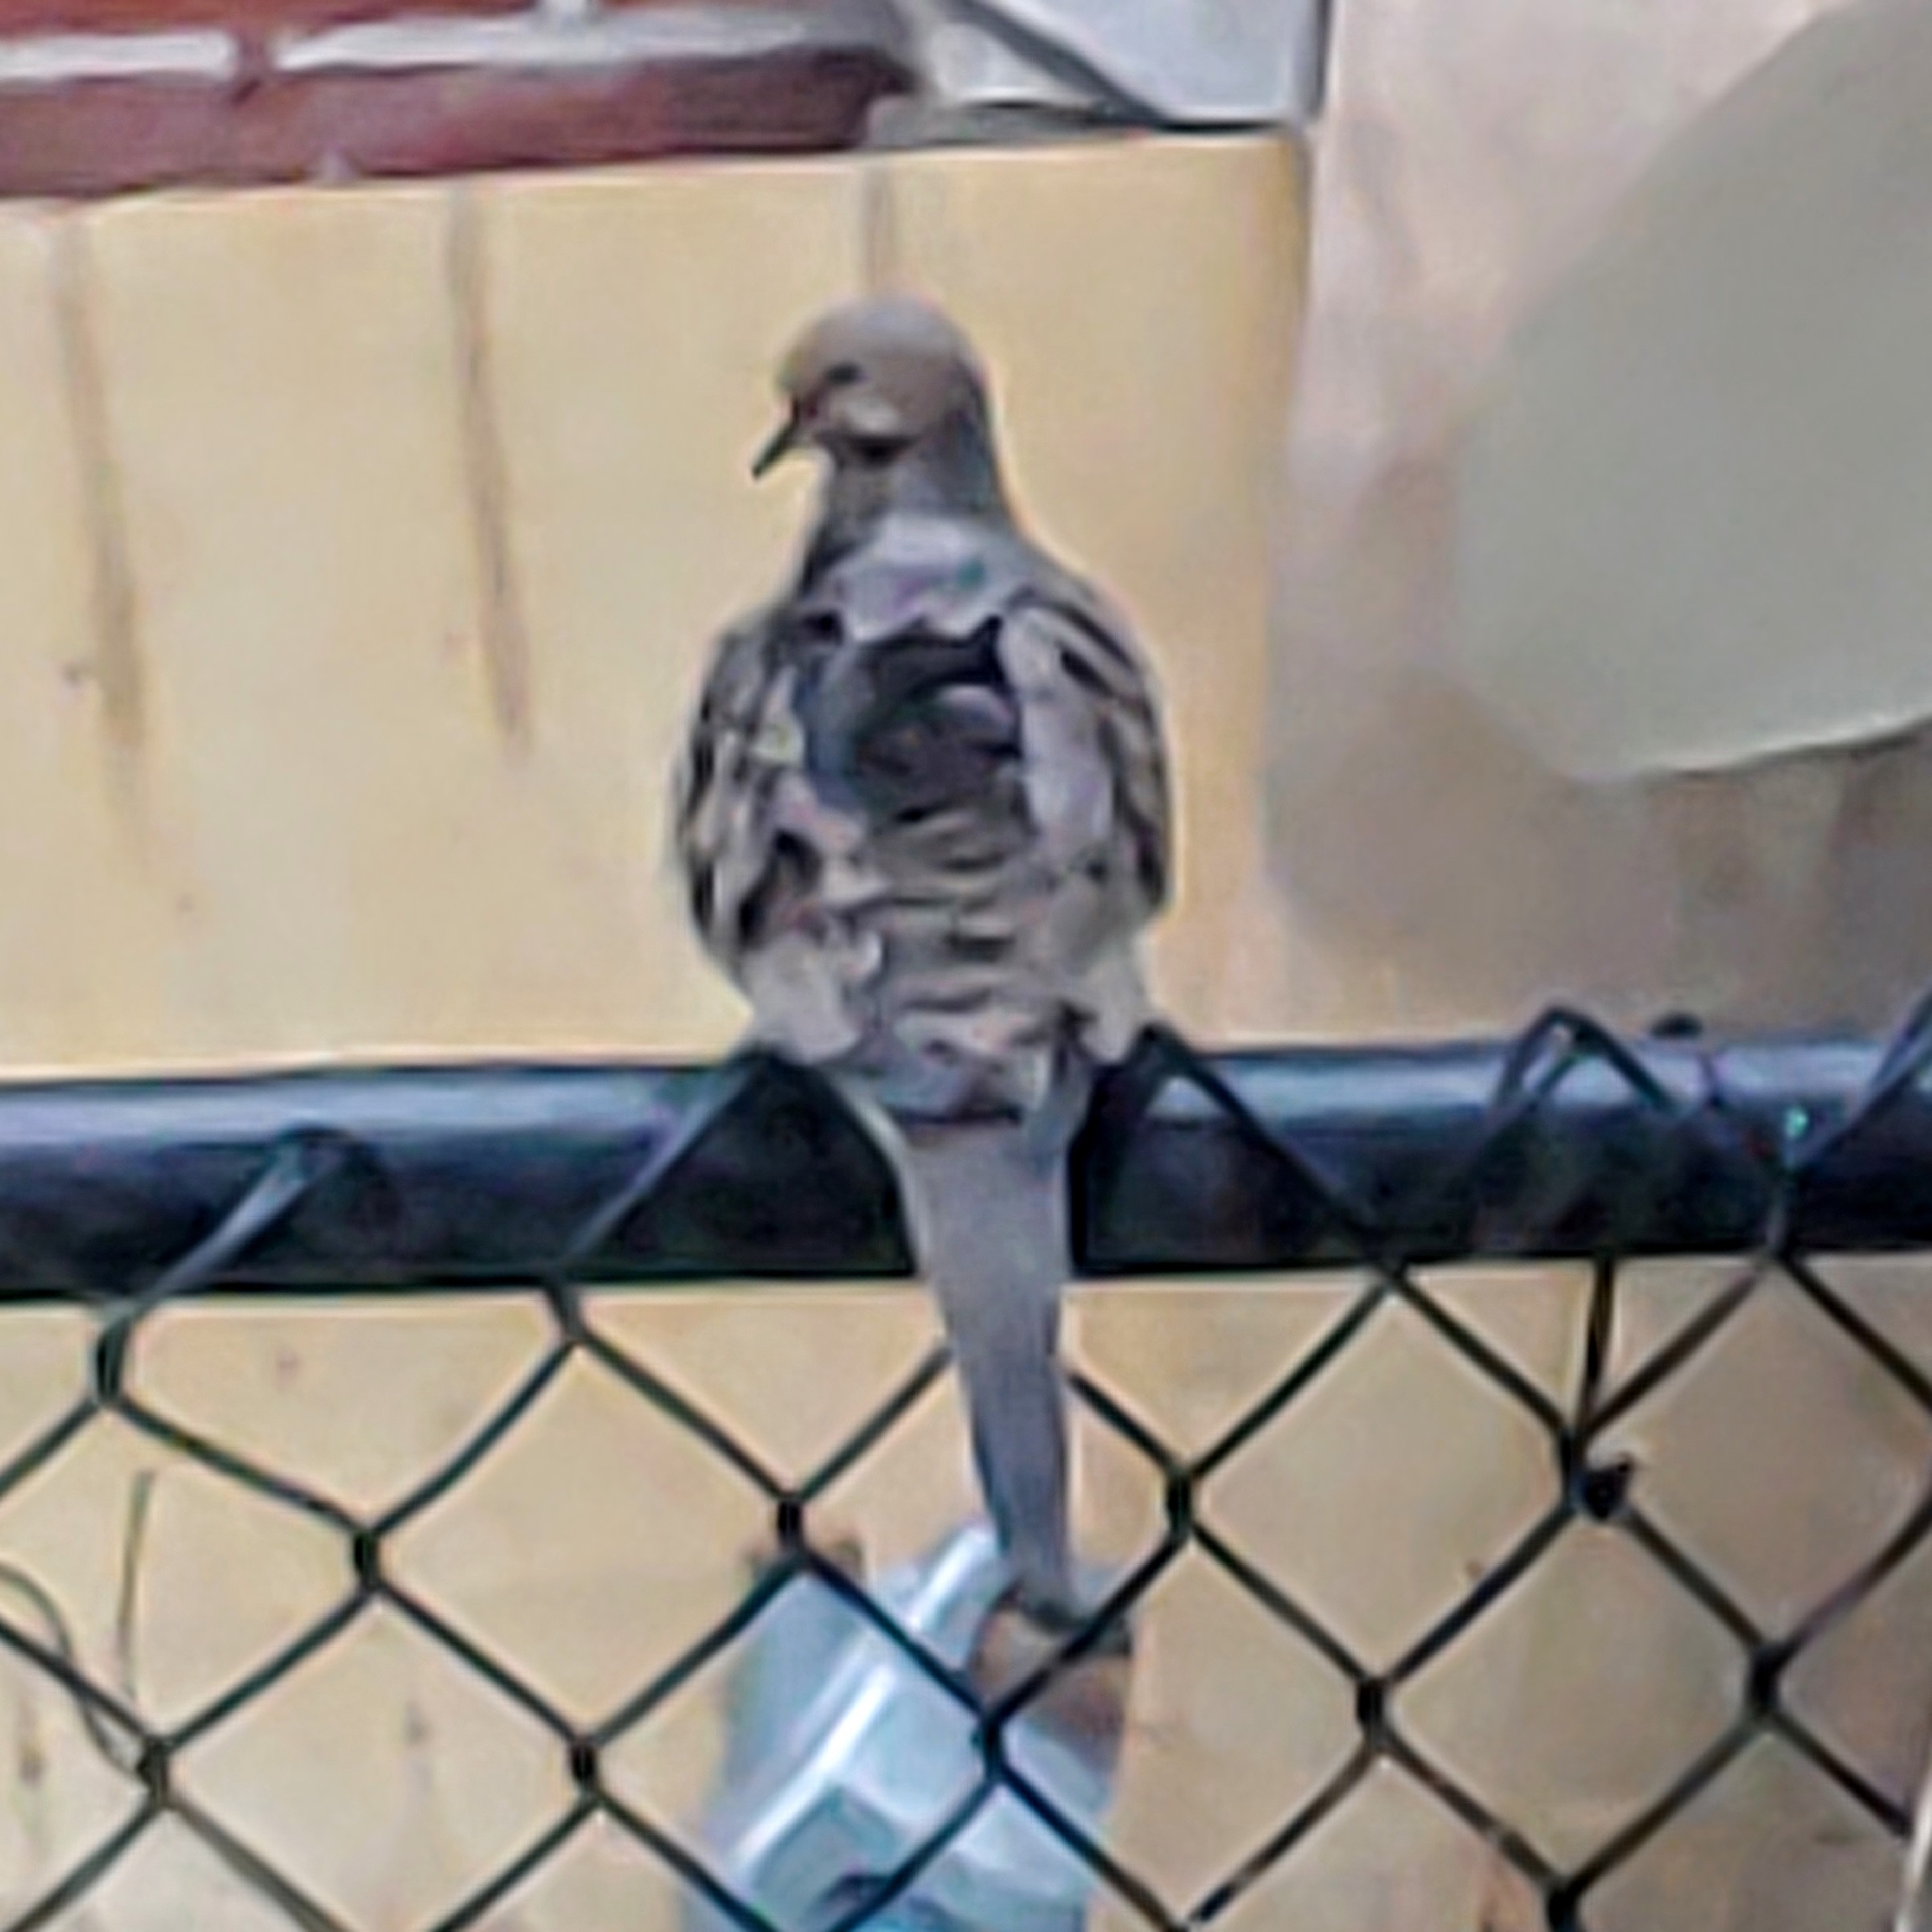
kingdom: Animalia
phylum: Chordata
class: Aves
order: Columbiformes
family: Columbidae
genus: Zenaida
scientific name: Zenaida macroura
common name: Mourning dove
